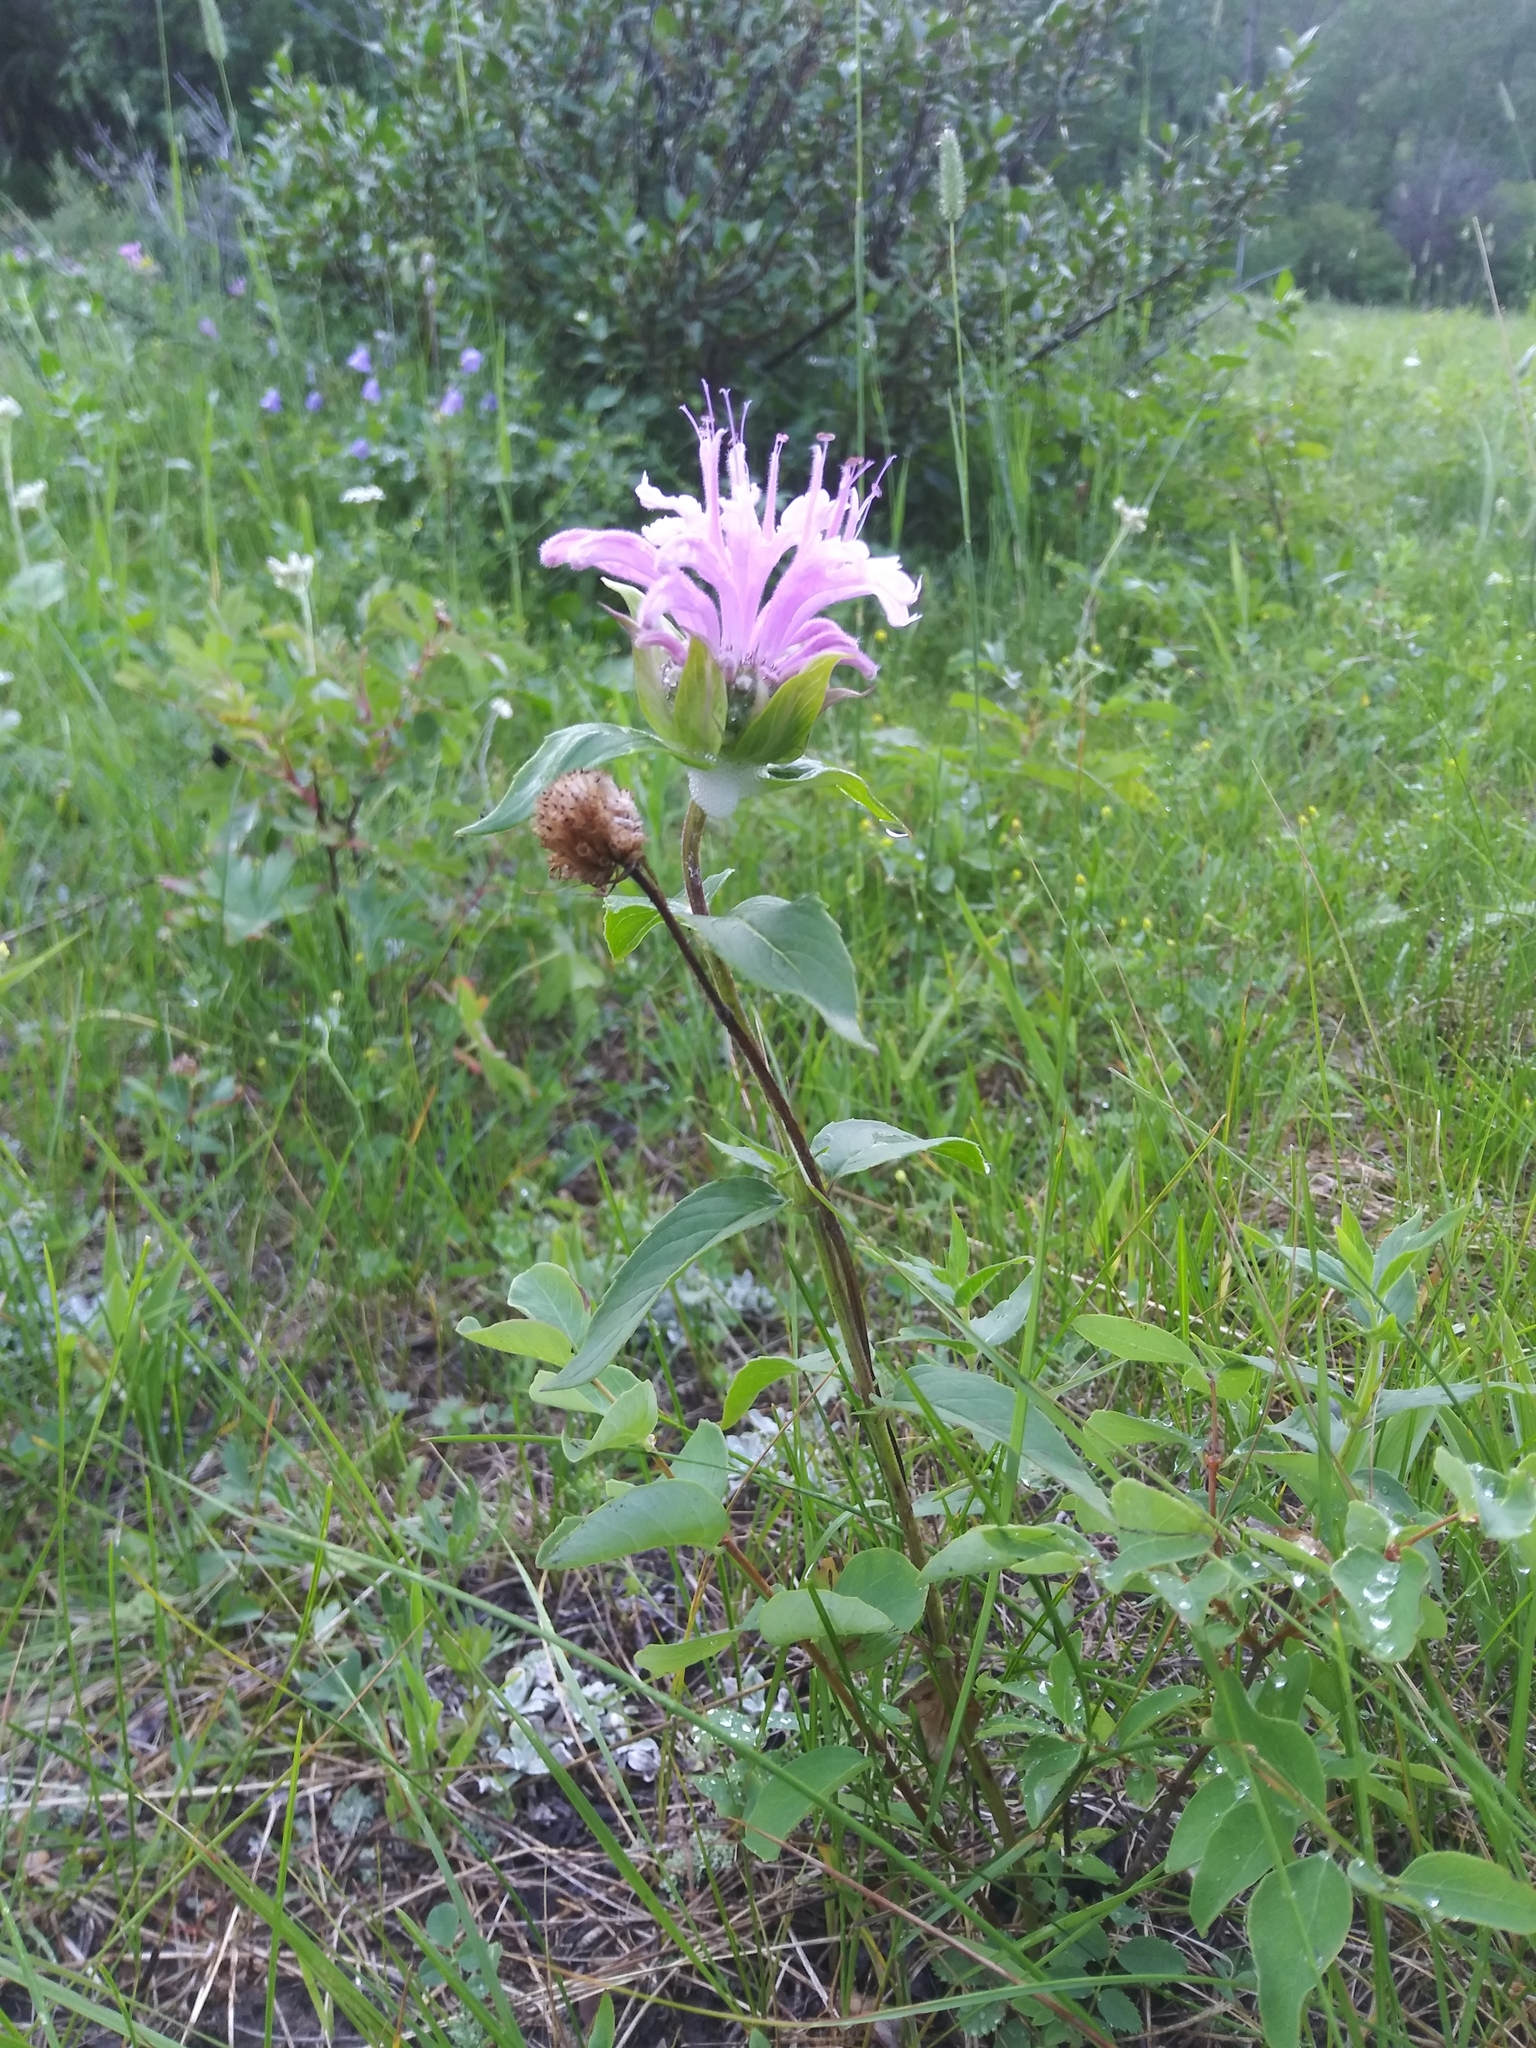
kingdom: Plantae
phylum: Tracheophyta
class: Magnoliopsida
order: Lamiales
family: Lamiaceae
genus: Monarda
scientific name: Monarda fistulosa
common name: Purple beebalm
